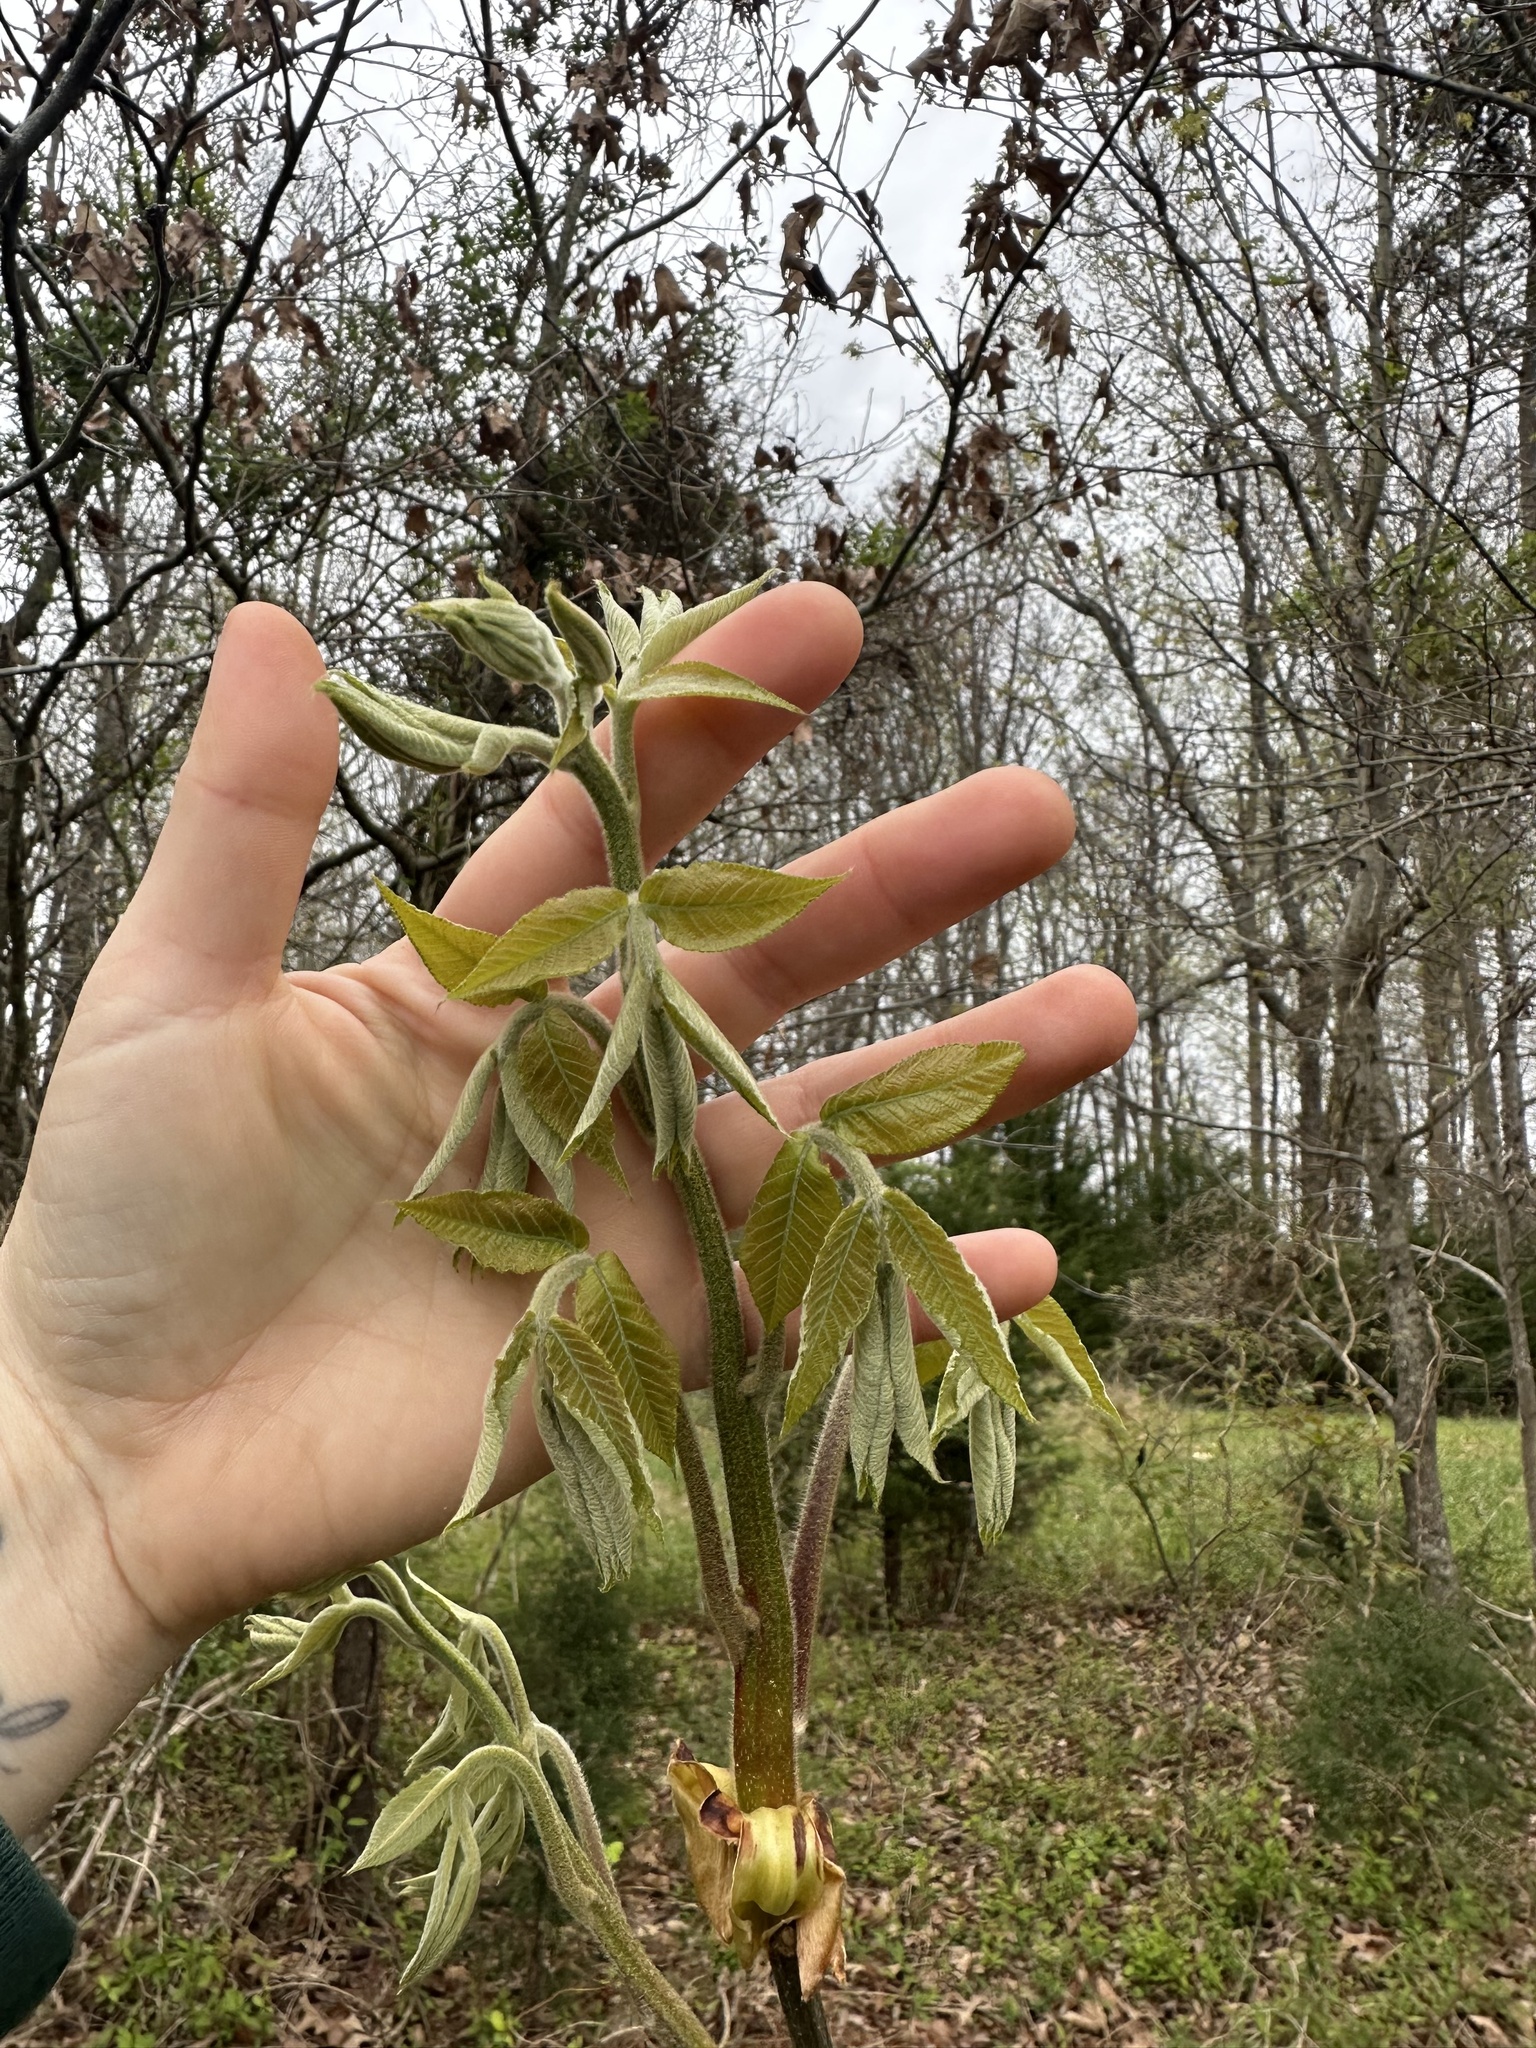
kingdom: Plantae
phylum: Tracheophyta
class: Magnoliopsida
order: Fagales
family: Juglandaceae
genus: Carya
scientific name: Carya alba
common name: Mockernut hickory
